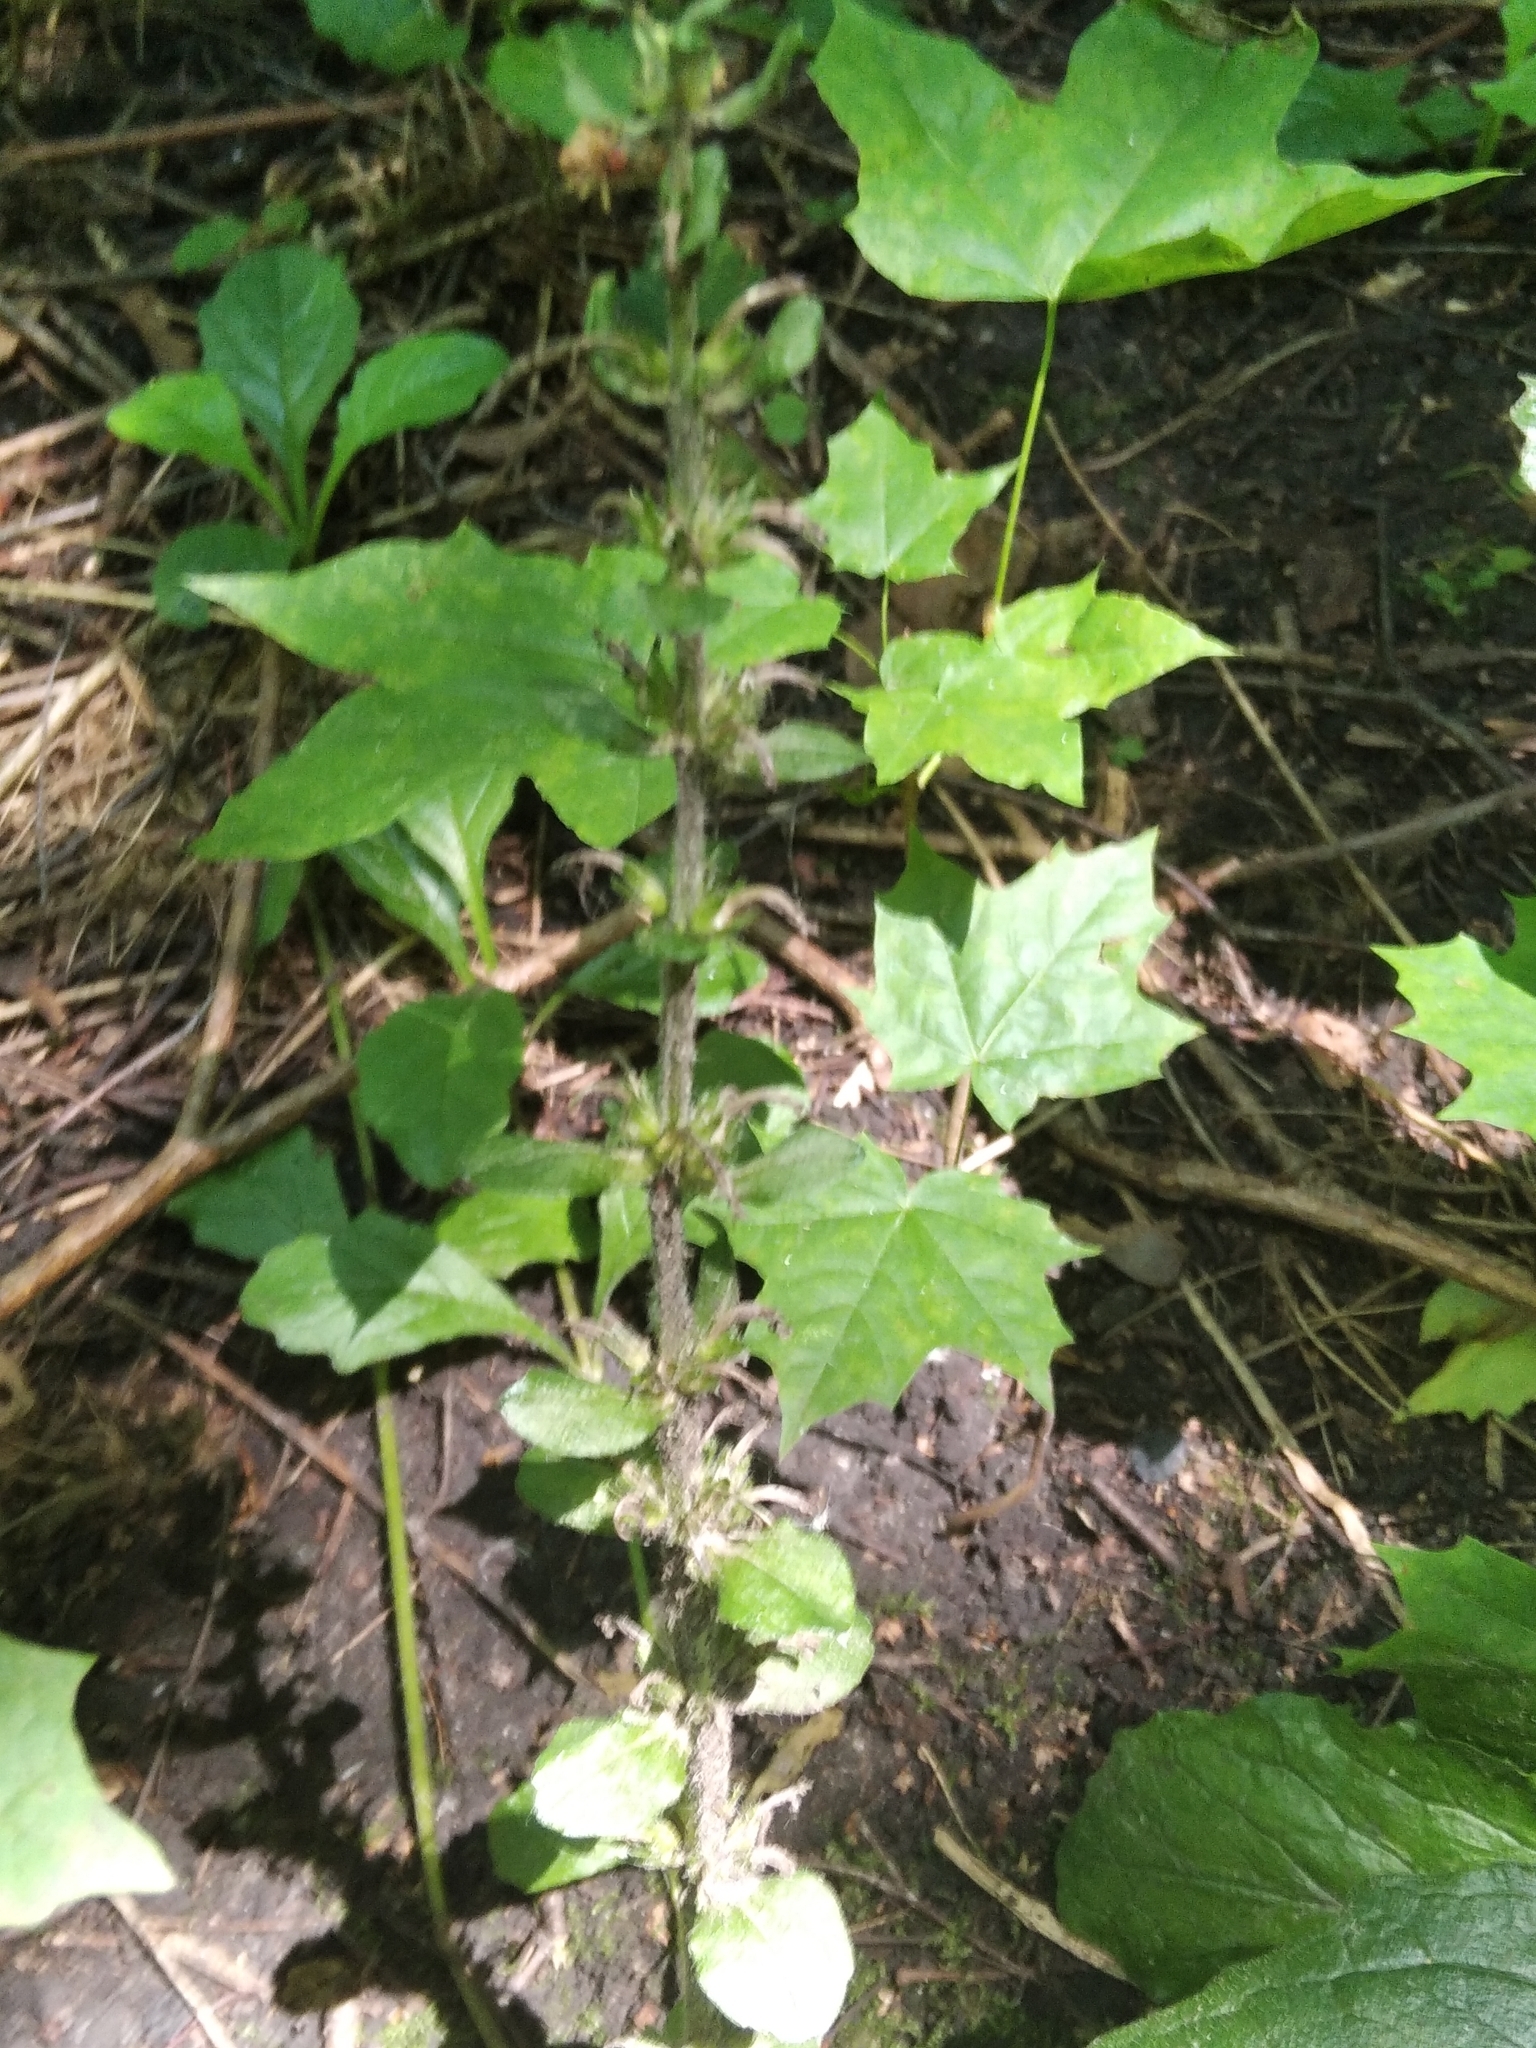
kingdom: Plantae
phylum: Tracheophyta
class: Magnoliopsida
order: Sapindales
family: Sapindaceae
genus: Acer
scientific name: Acer platanoides
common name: Norway maple
